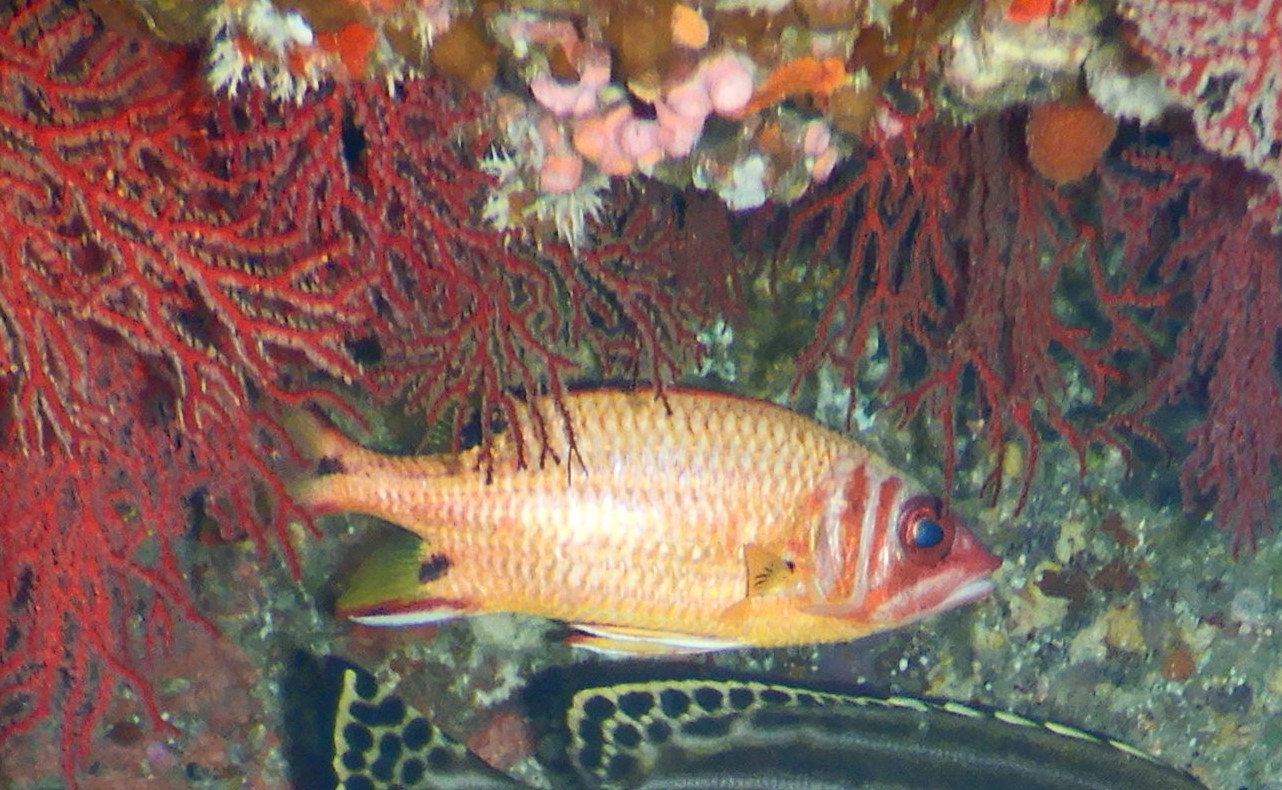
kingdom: Animalia
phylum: Chordata
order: Beryciformes
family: Holocentridae
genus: Sargocentron
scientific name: Sargocentron melanospilos
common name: Blackblotch squirrelfish
